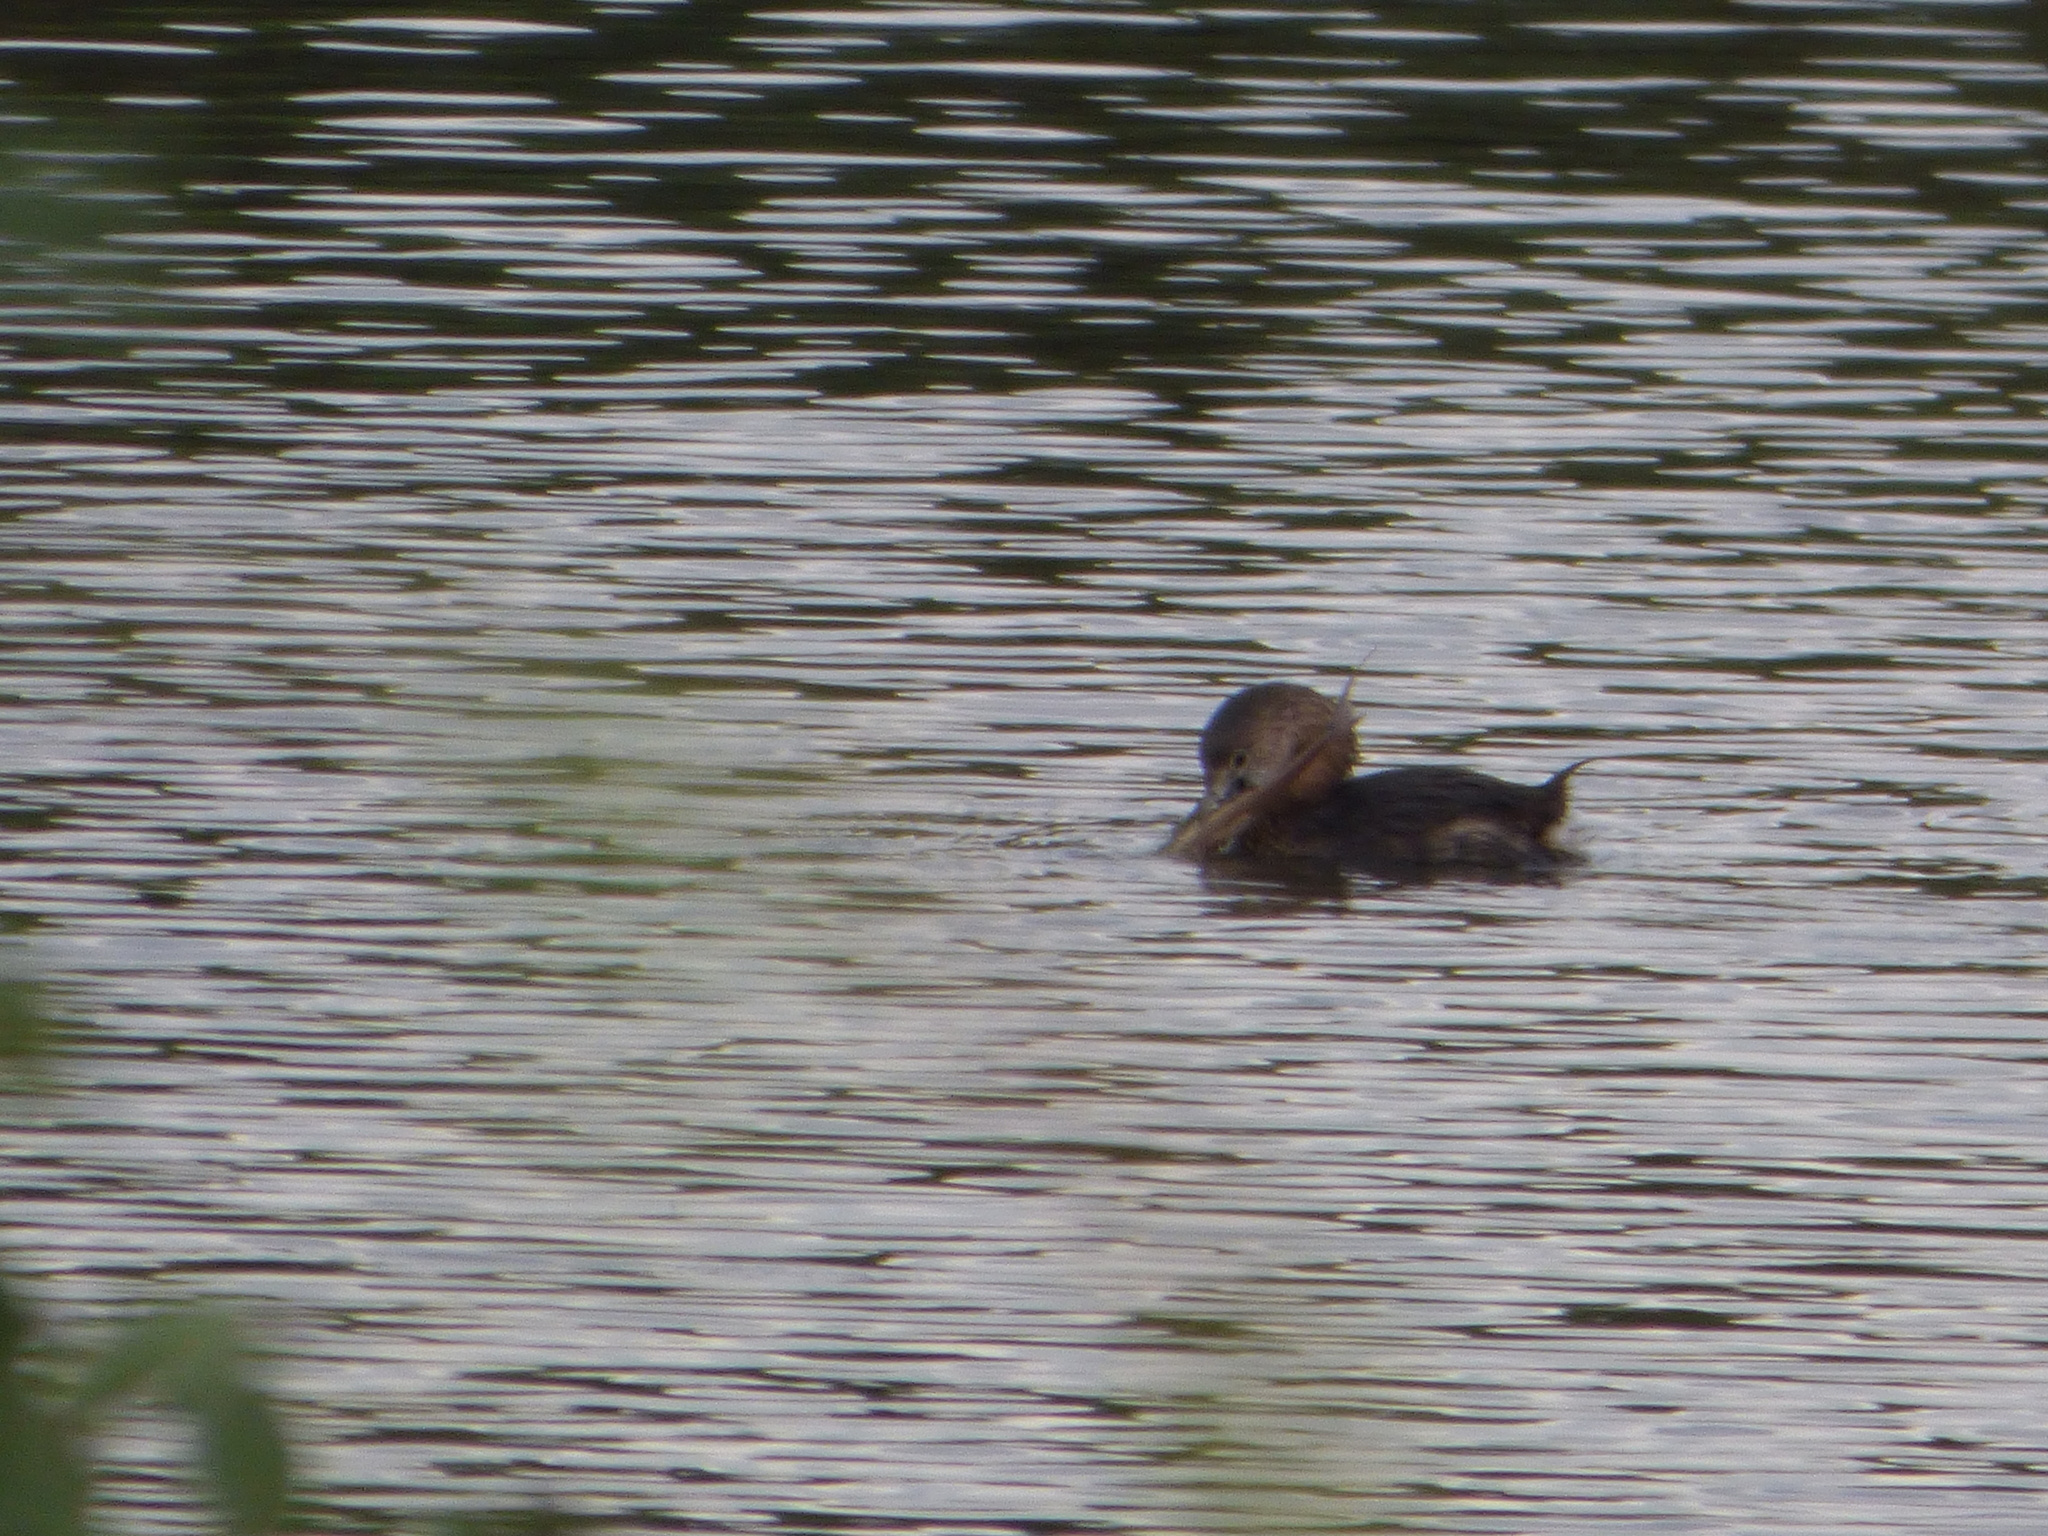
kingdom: Animalia
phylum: Chordata
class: Aves
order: Podicipediformes
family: Podicipedidae
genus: Podilymbus
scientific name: Podilymbus podiceps
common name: Pied-billed grebe
